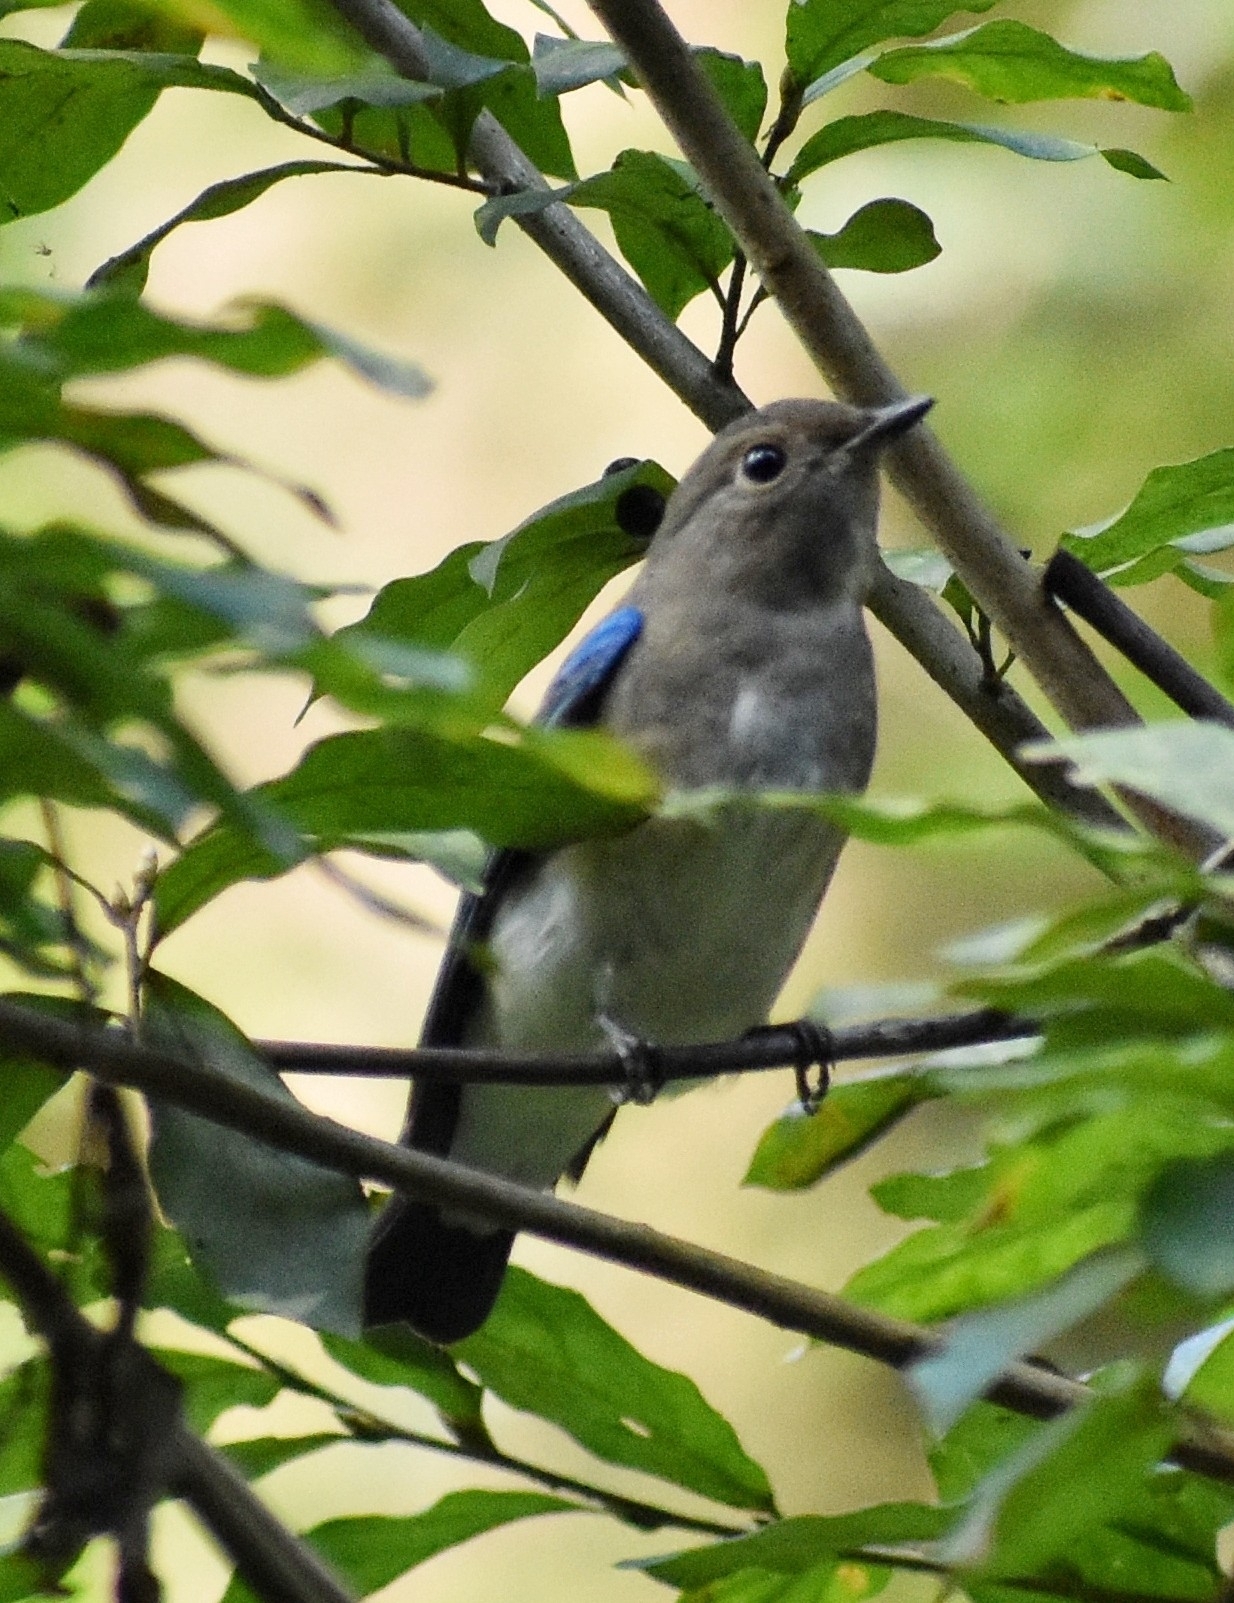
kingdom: Animalia
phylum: Chordata
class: Aves
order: Passeriformes
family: Muscicapidae
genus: Cyanoptila
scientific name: Cyanoptila cyanomelana
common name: Blue-and-white flycatcher
